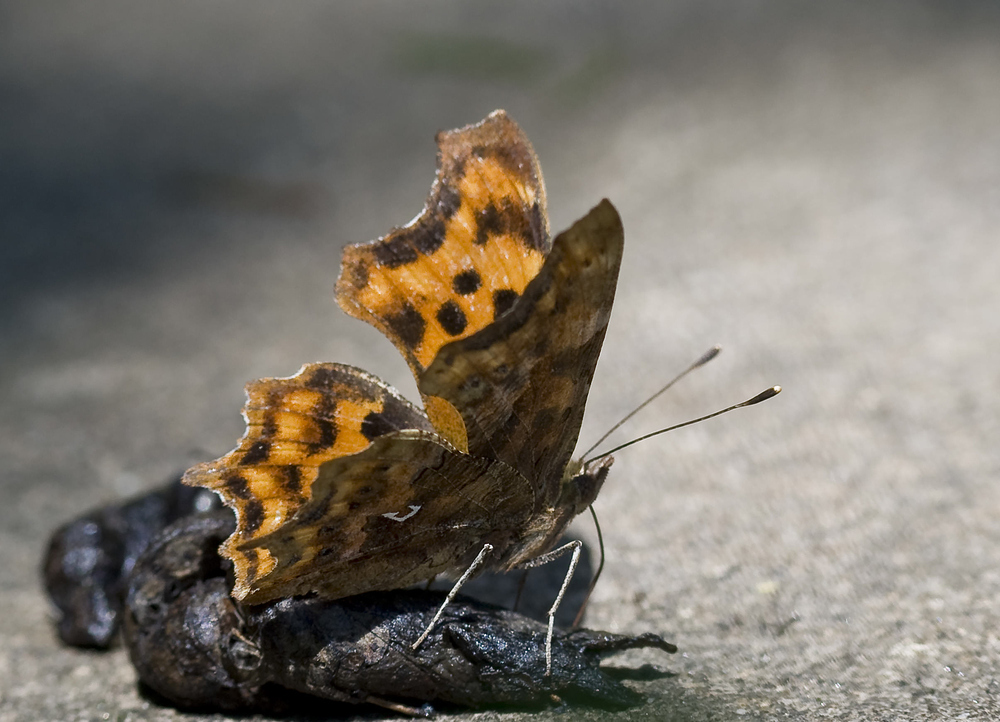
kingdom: Animalia
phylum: Arthropoda
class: Insecta
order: Lepidoptera
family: Nymphalidae
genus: Polygonia
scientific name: Polygonia c-album
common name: Comma
